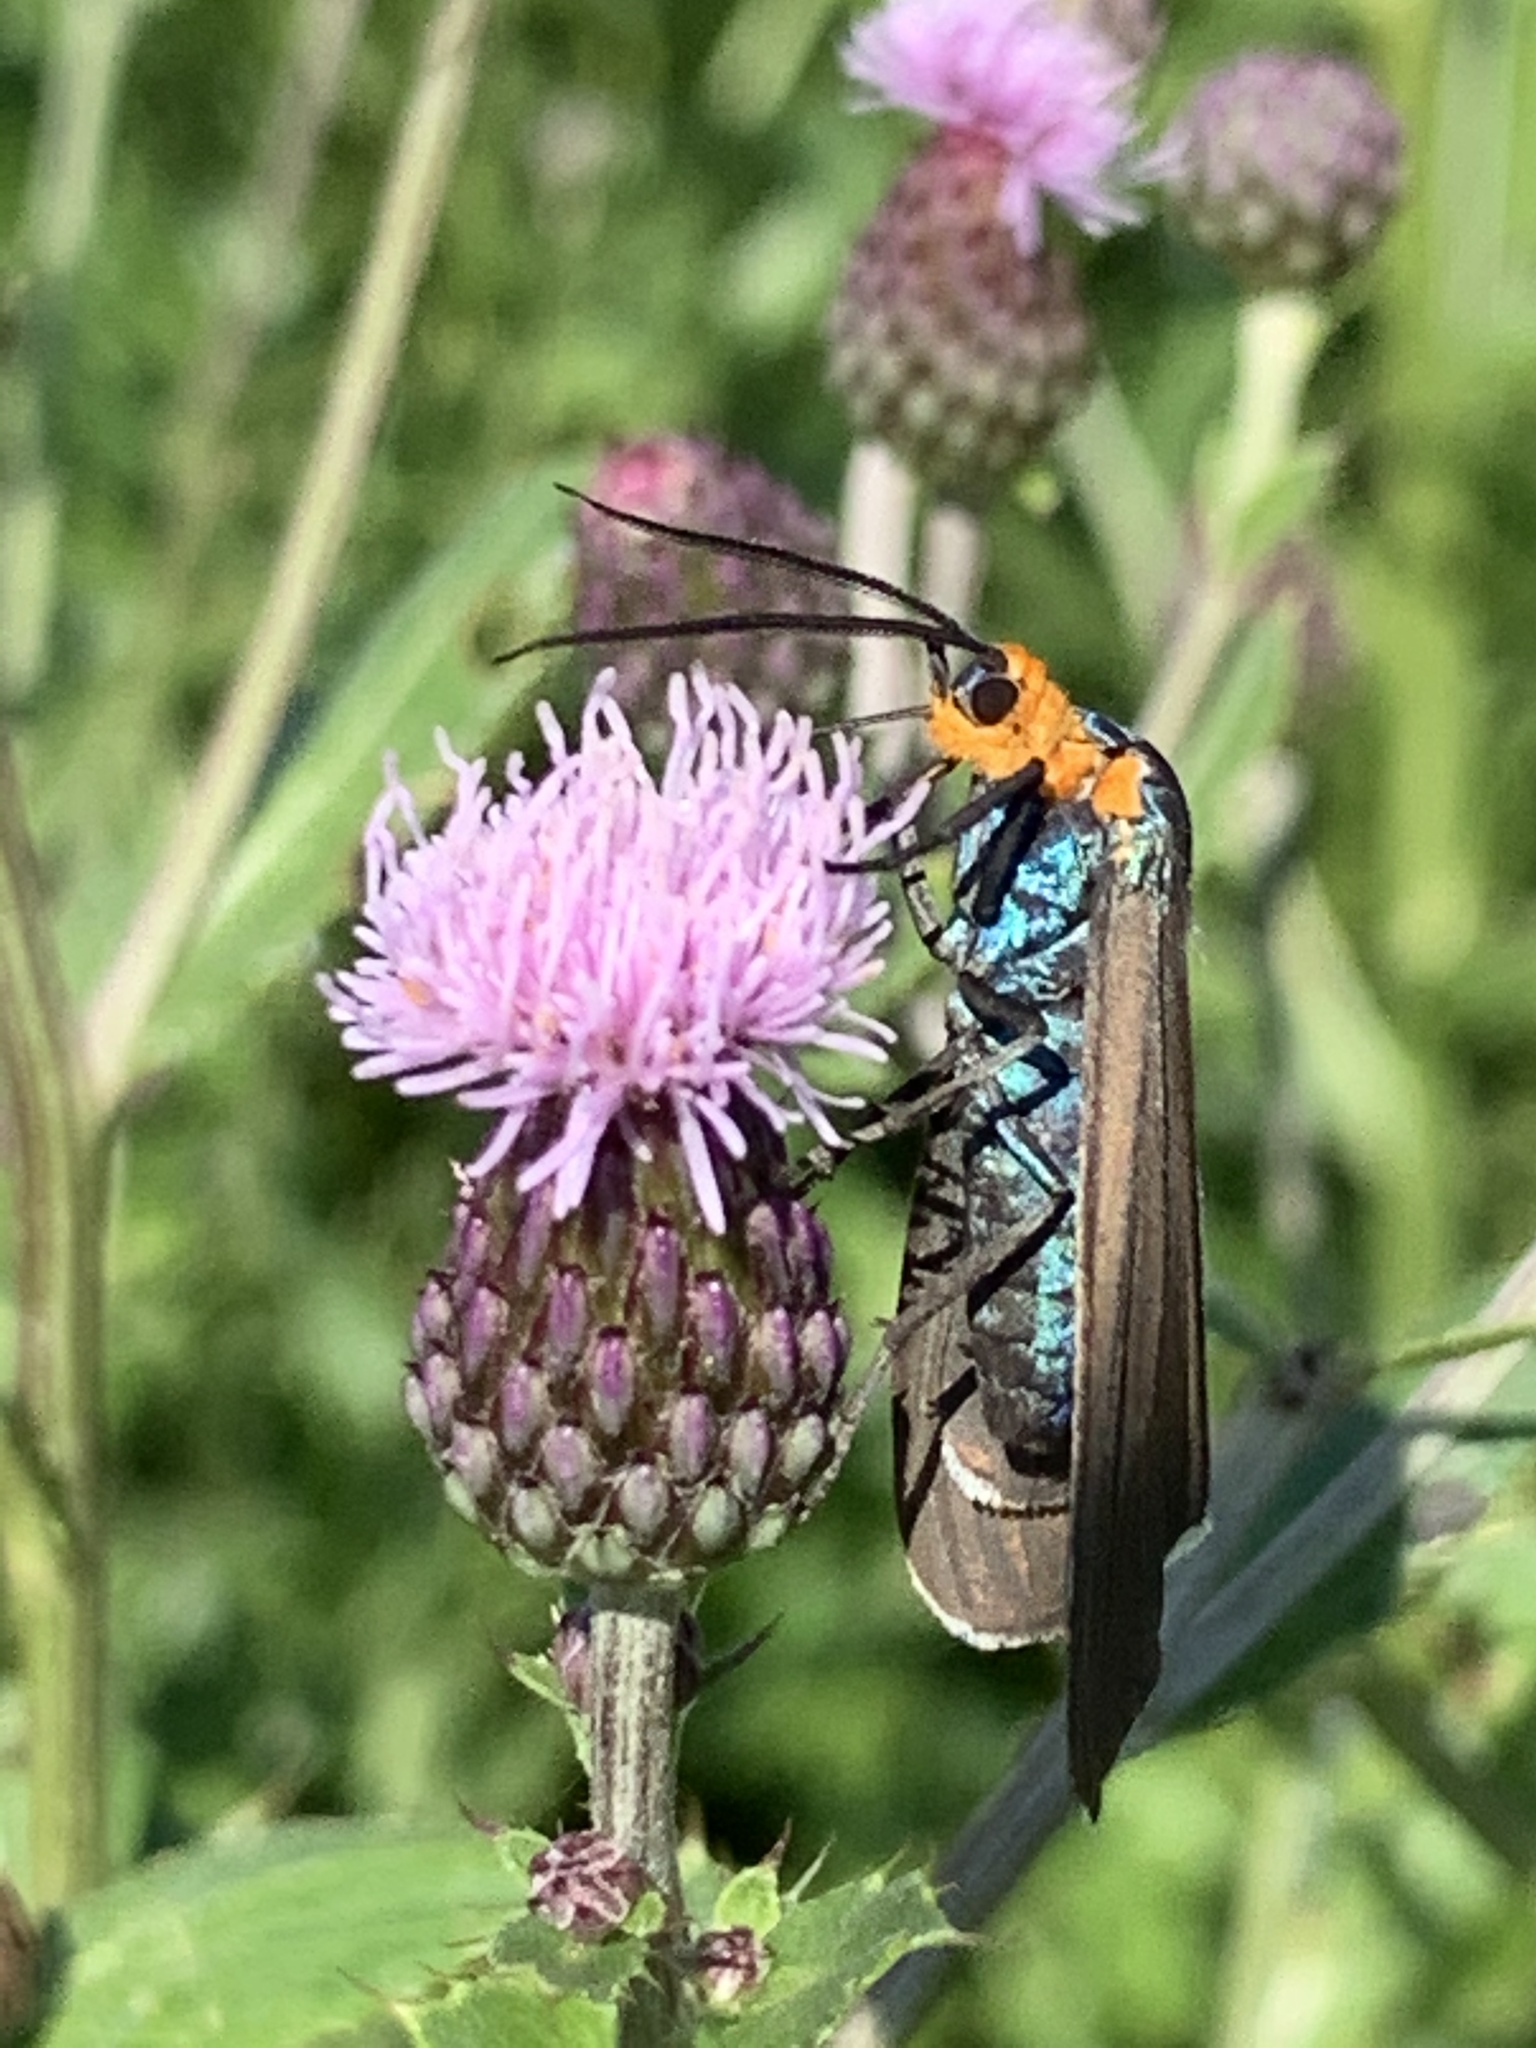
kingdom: Animalia
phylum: Arthropoda
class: Insecta
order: Lepidoptera
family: Erebidae
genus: Ctenucha
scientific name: Ctenucha virginica
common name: Virginia ctenucha moth
